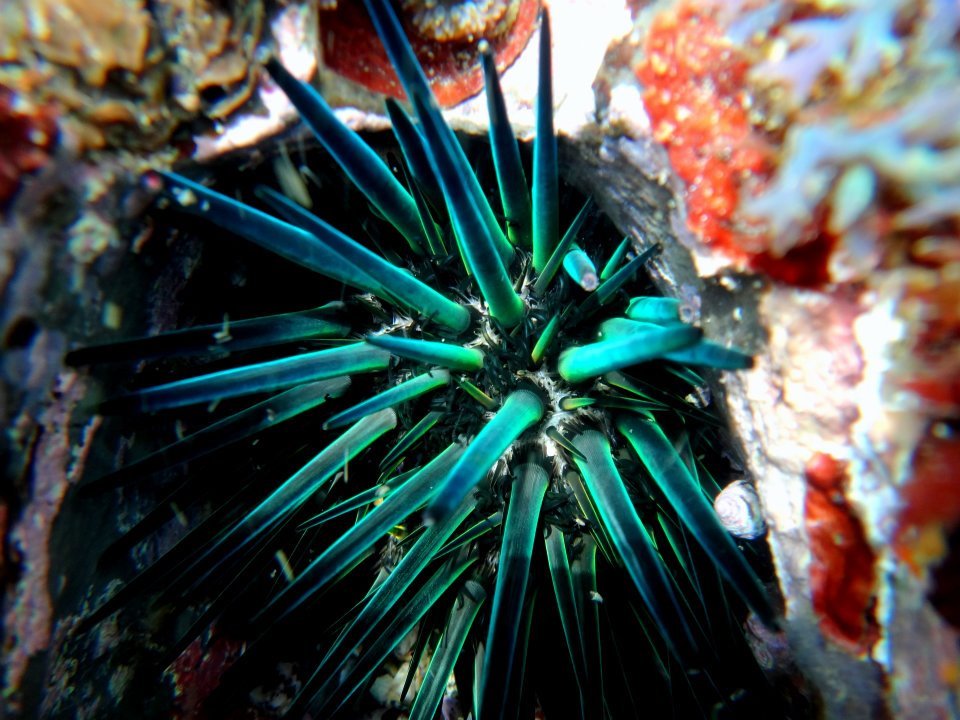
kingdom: Animalia
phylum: Echinodermata
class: Echinoidea
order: Stomopneustoida
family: Stomopneustidae
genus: Stomopneustes
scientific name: Stomopneustes variolaris
